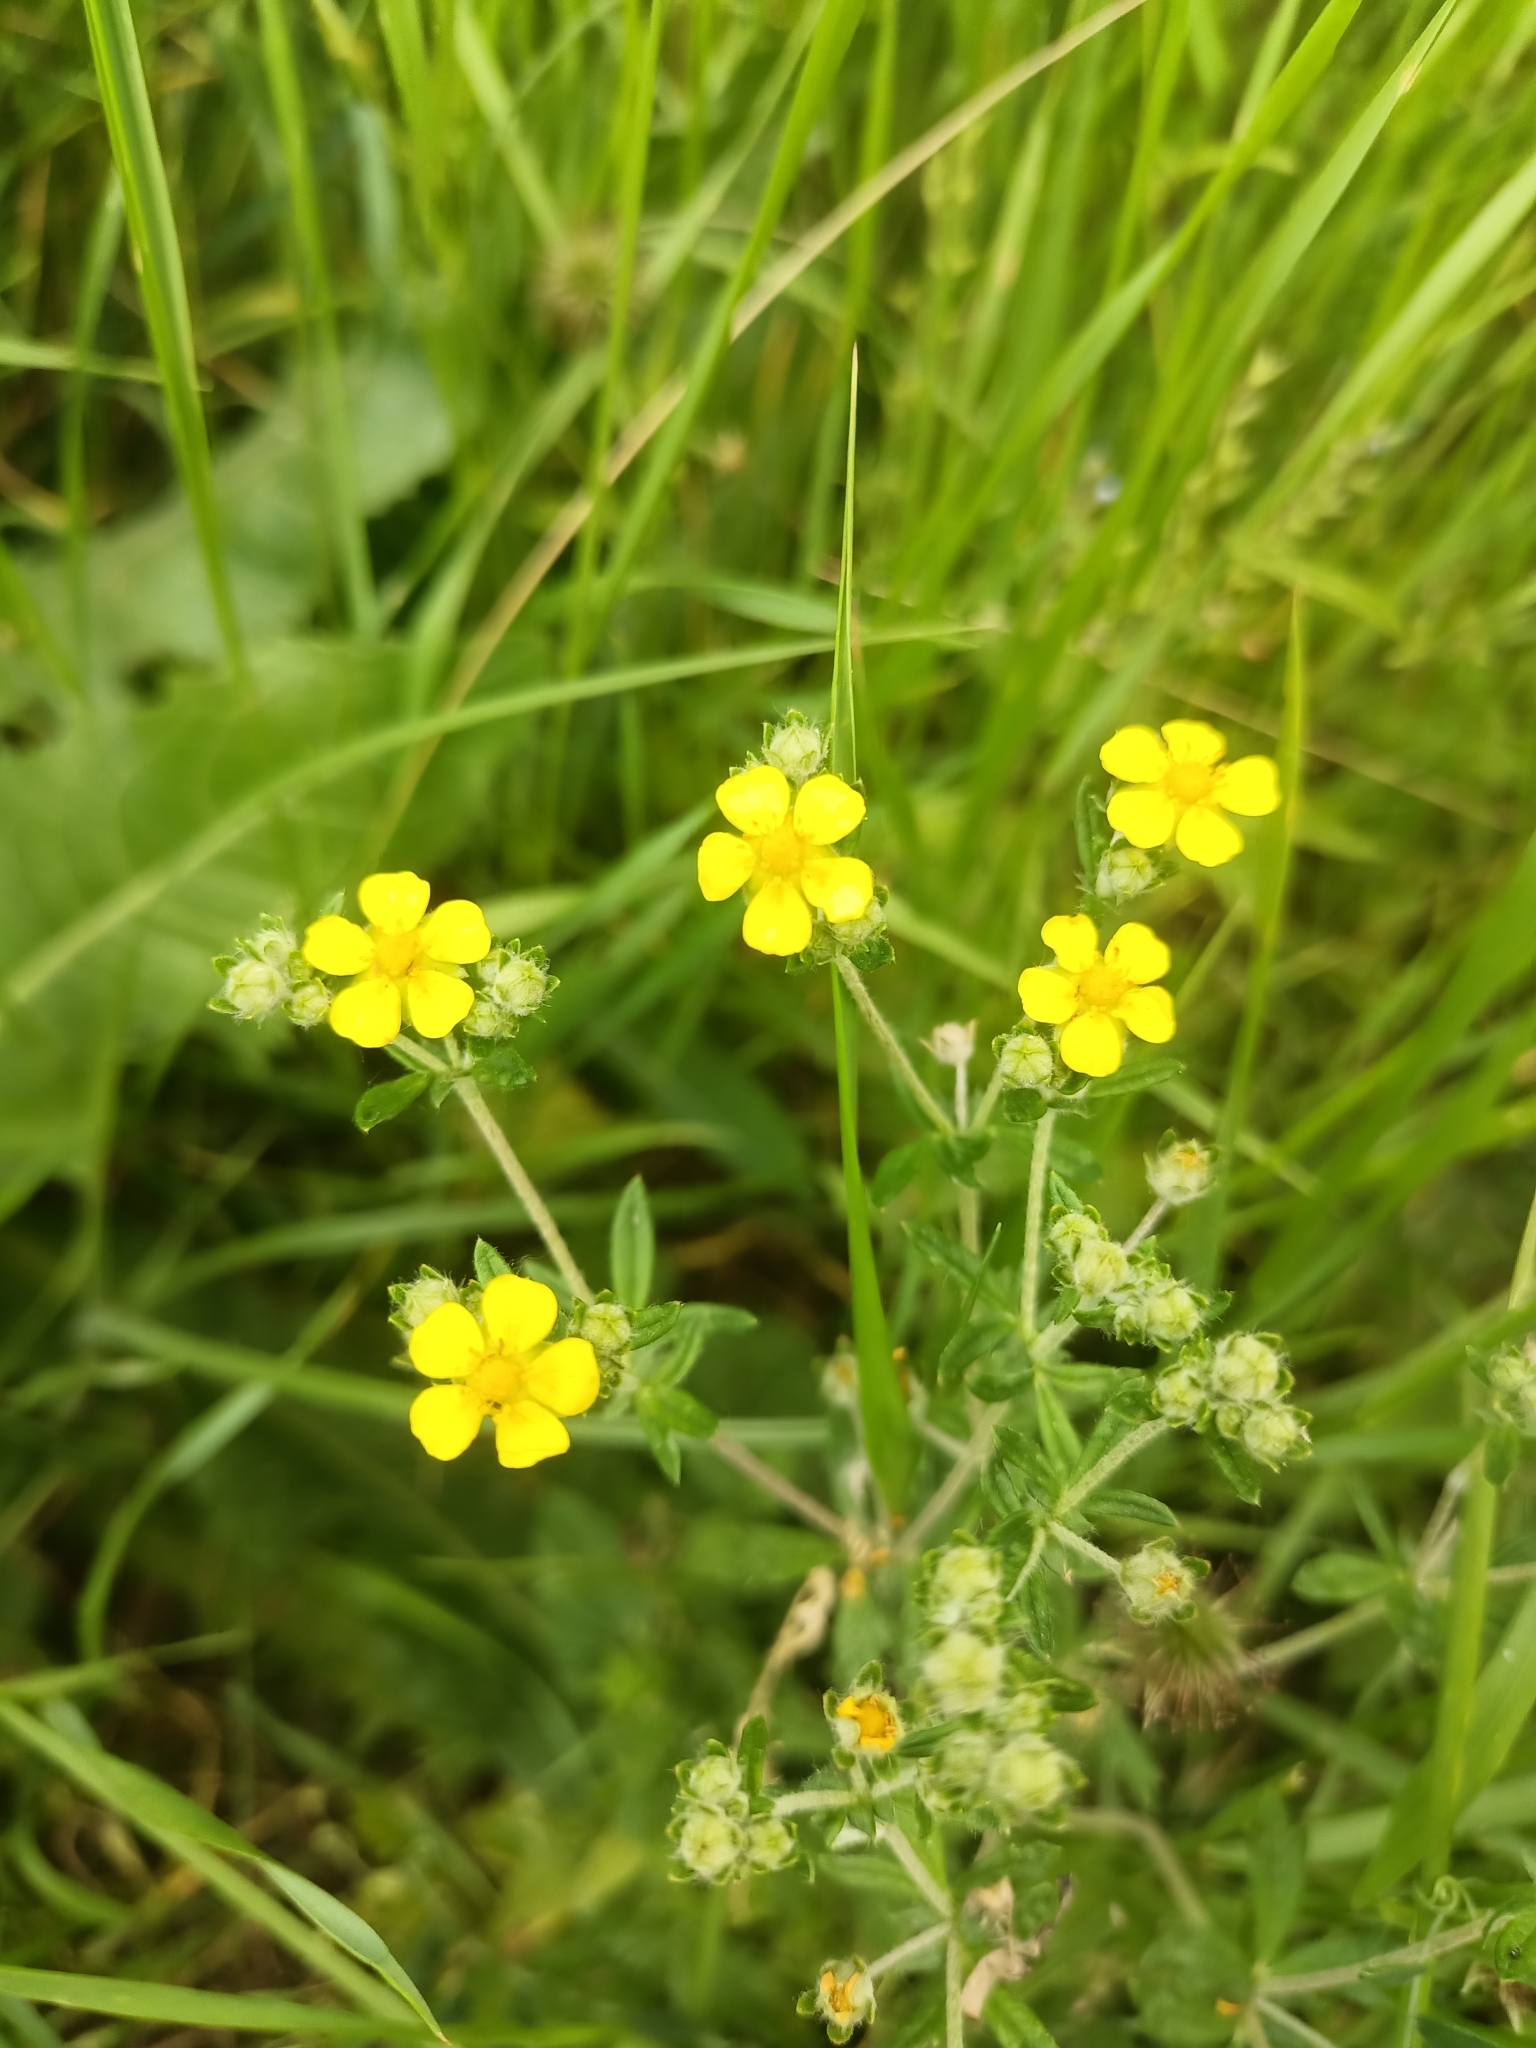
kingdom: Plantae
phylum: Tracheophyta
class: Magnoliopsida
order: Rosales
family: Rosaceae
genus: Potentilla
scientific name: Potentilla argentea
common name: Hoary cinquefoil
